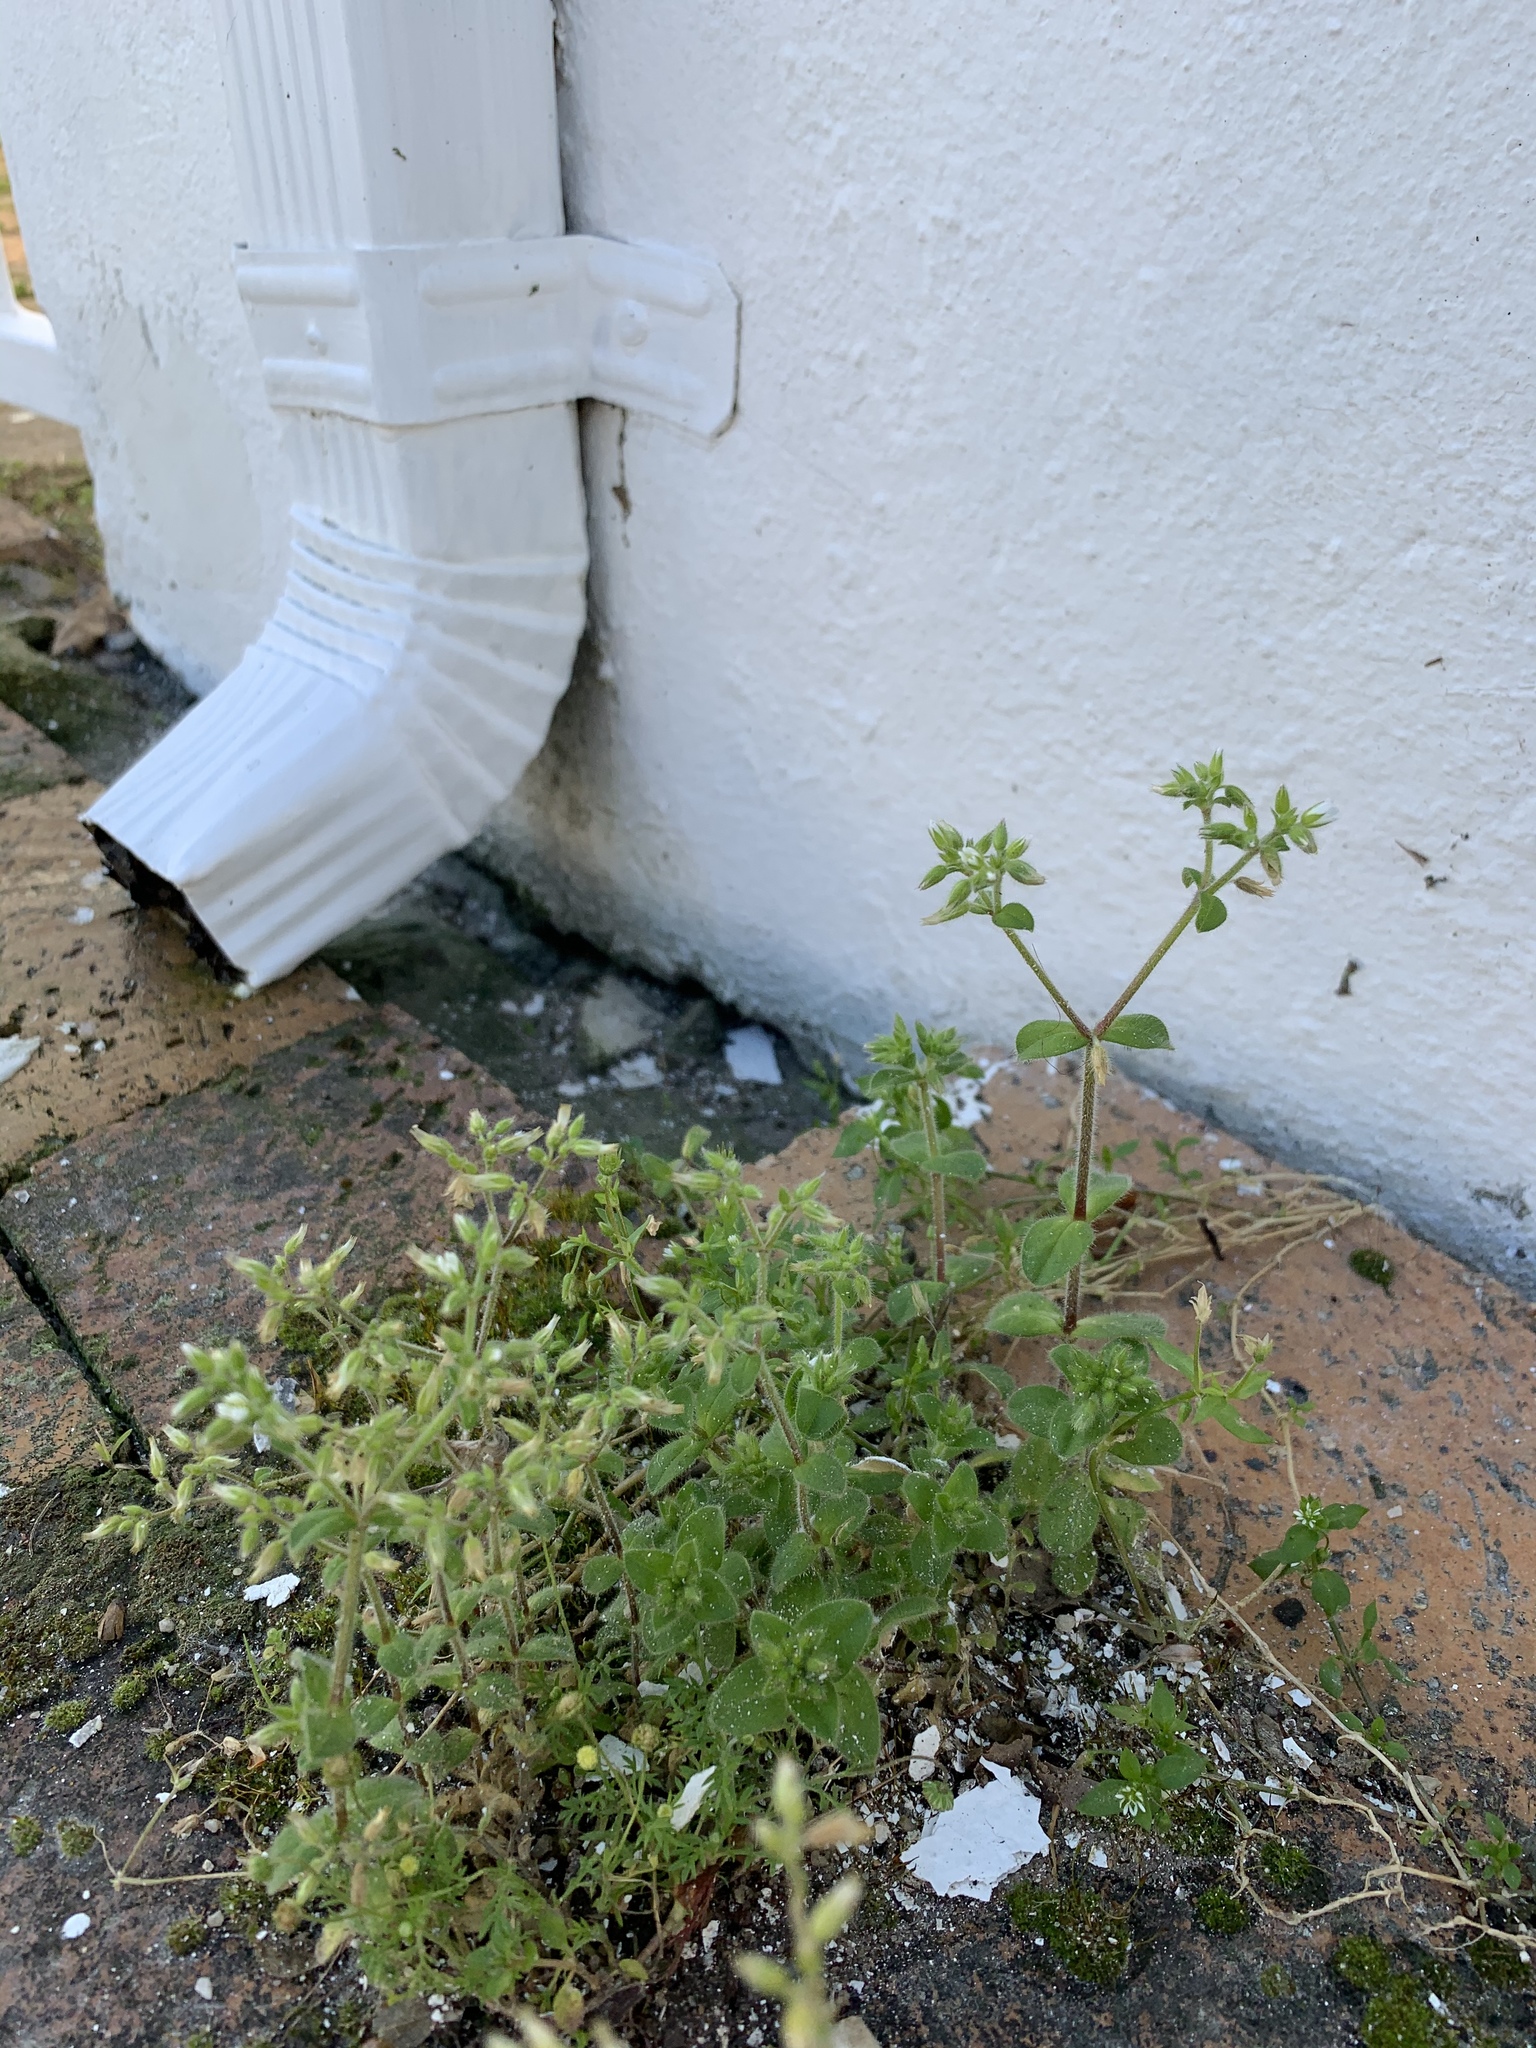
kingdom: Plantae
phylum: Tracheophyta
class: Magnoliopsida
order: Caryophyllales
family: Caryophyllaceae
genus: Cerastium
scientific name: Cerastium glomeratum
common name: Sticky chickweed
